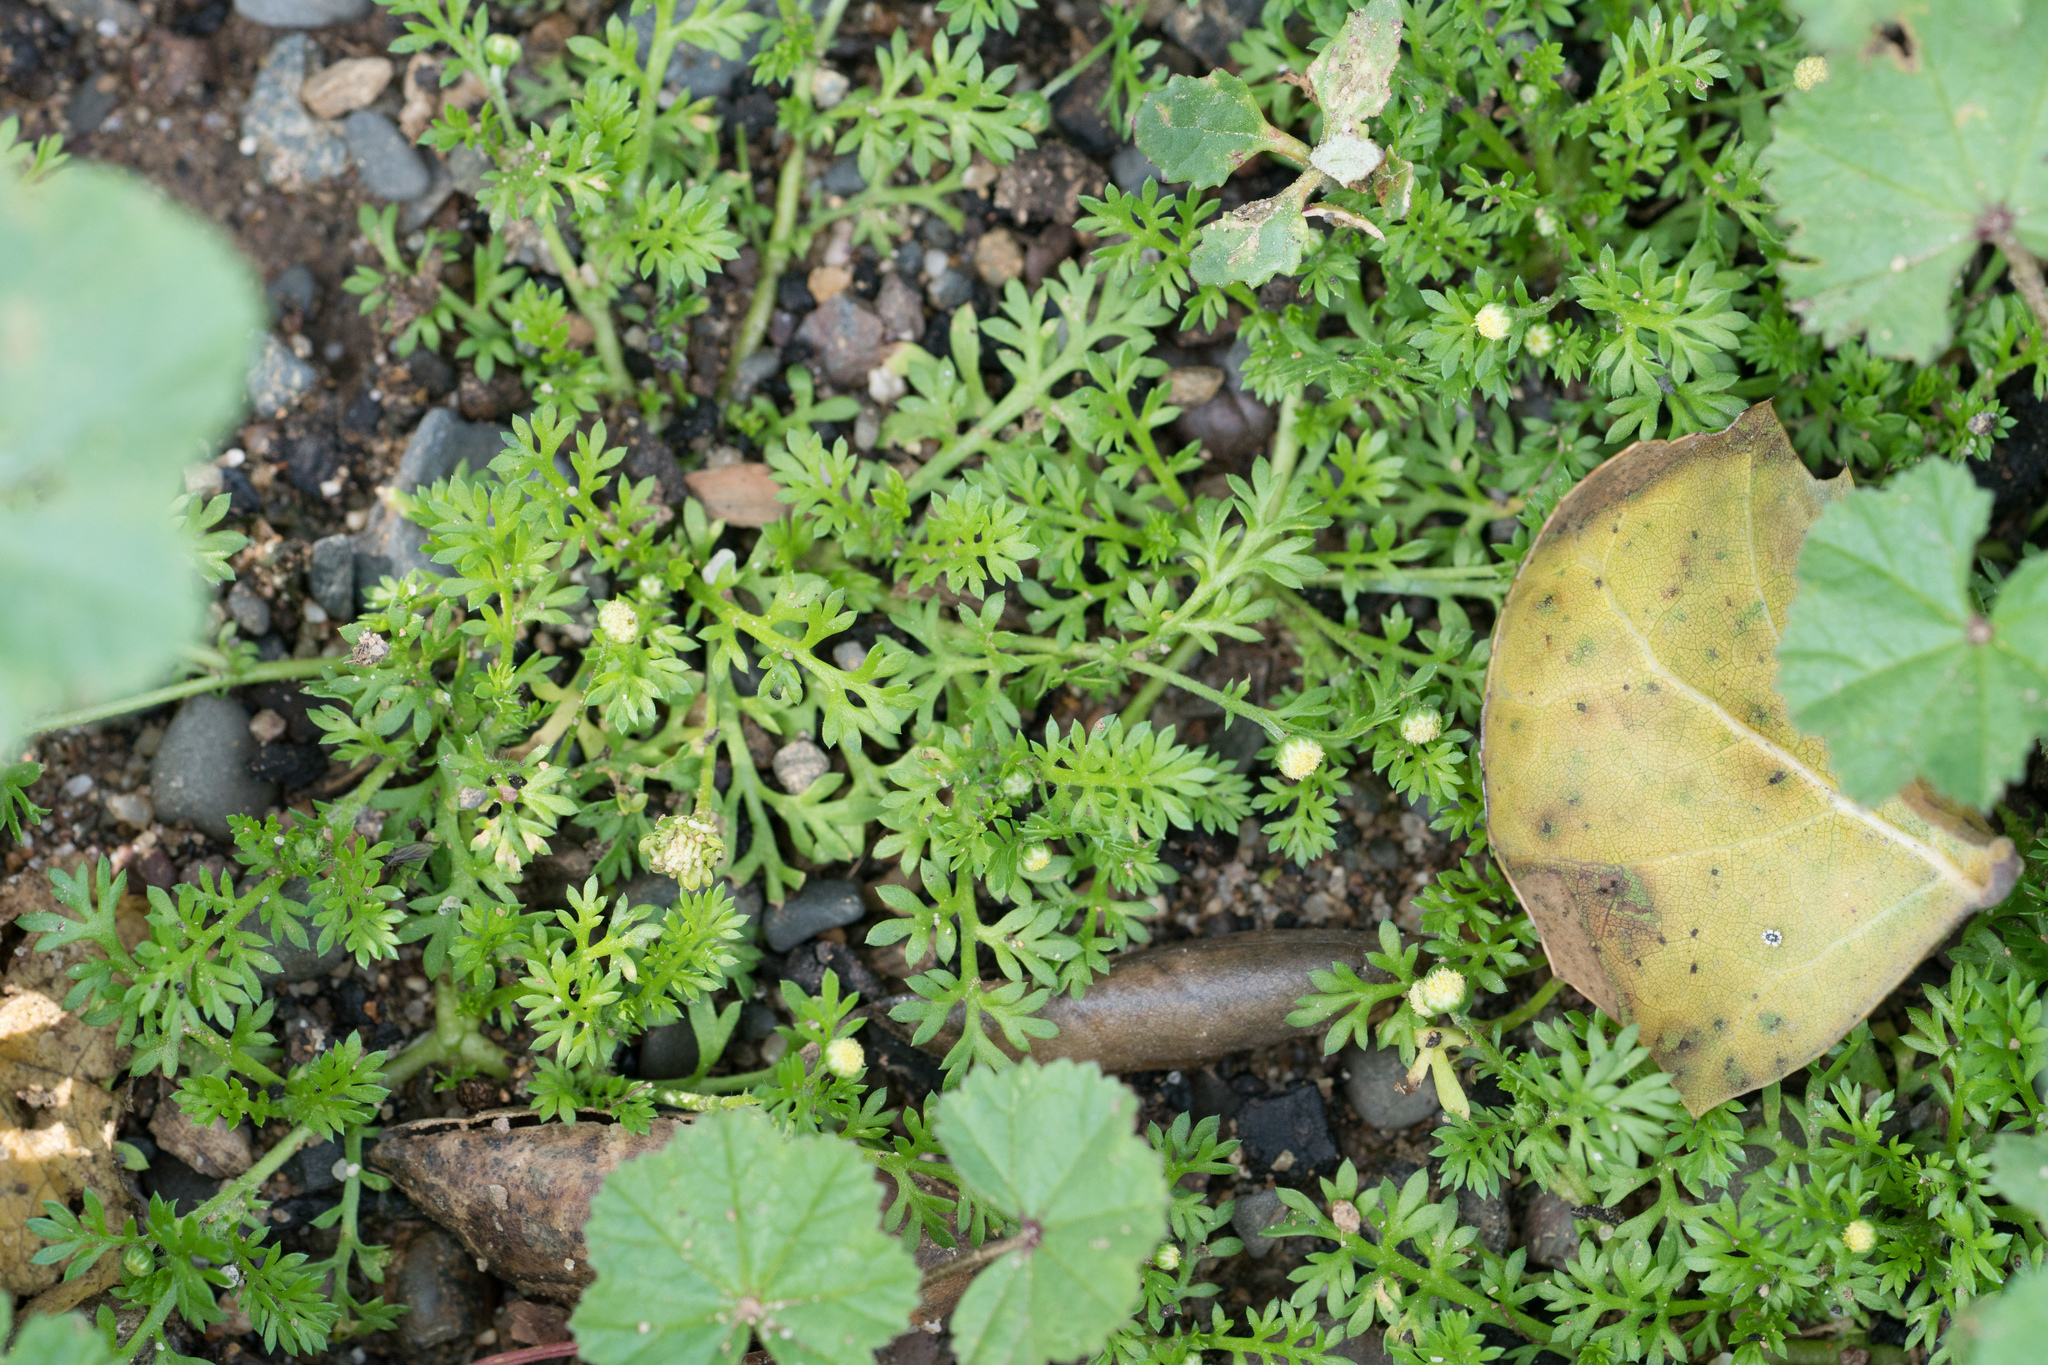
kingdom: Plantae
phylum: Tracheophyta
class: Magnoliopsida
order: Asterales
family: Asteraceae
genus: Cotula
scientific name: Cotula australis
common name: Australian waterbuttons
